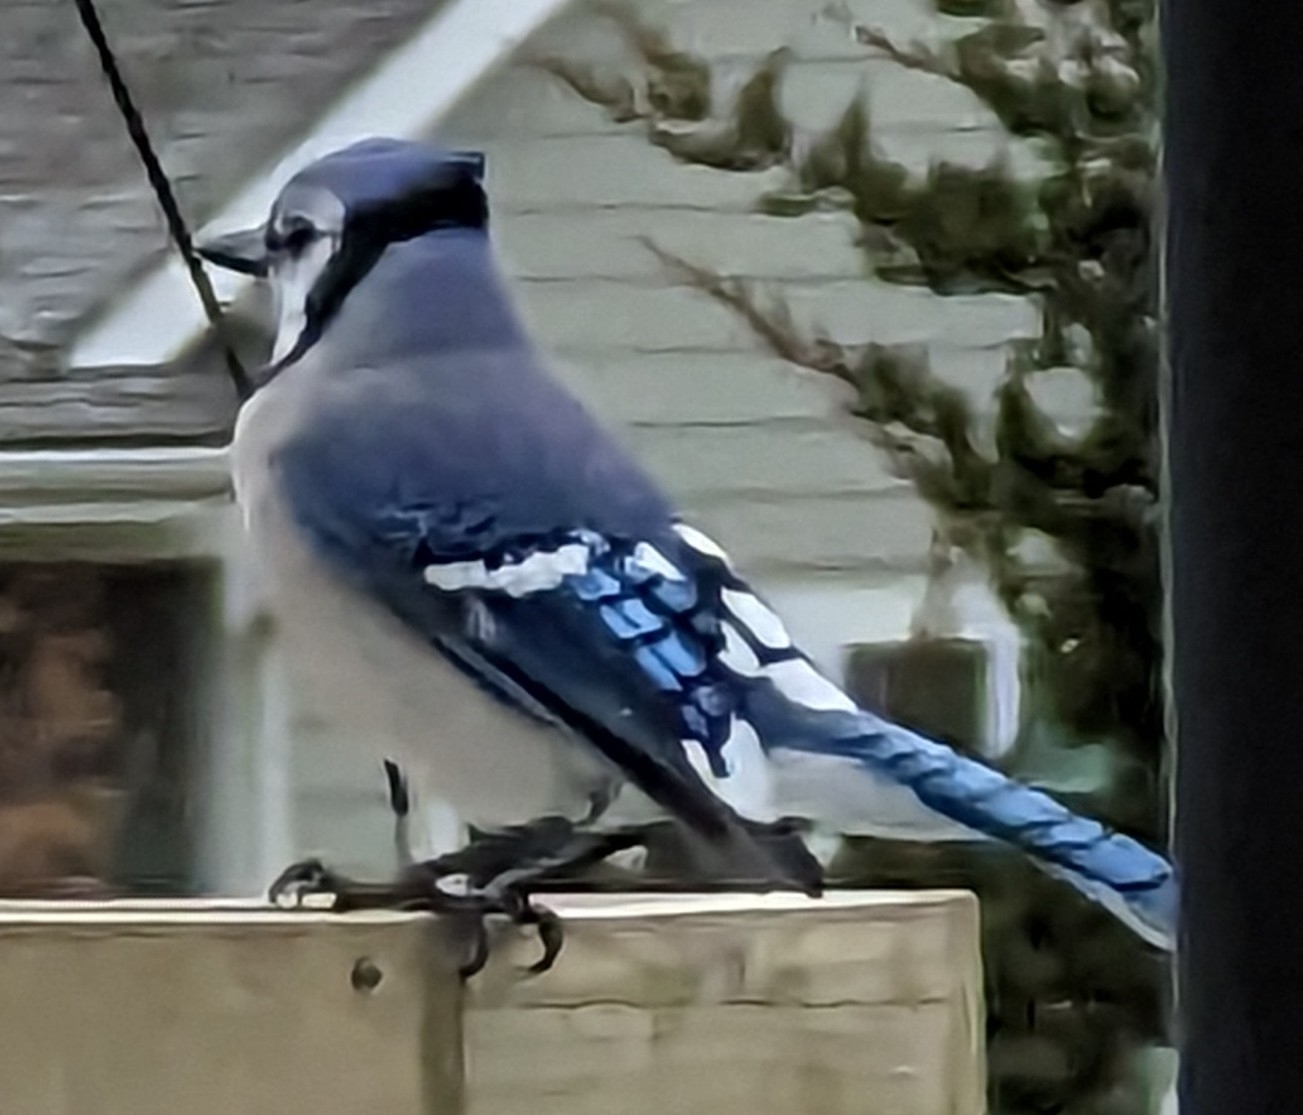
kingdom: Animalia
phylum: Chordata
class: Aves
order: Passeriformes
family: Corvidae
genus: Cyanocitta
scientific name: Cyanocitta cristata
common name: Blue jay
